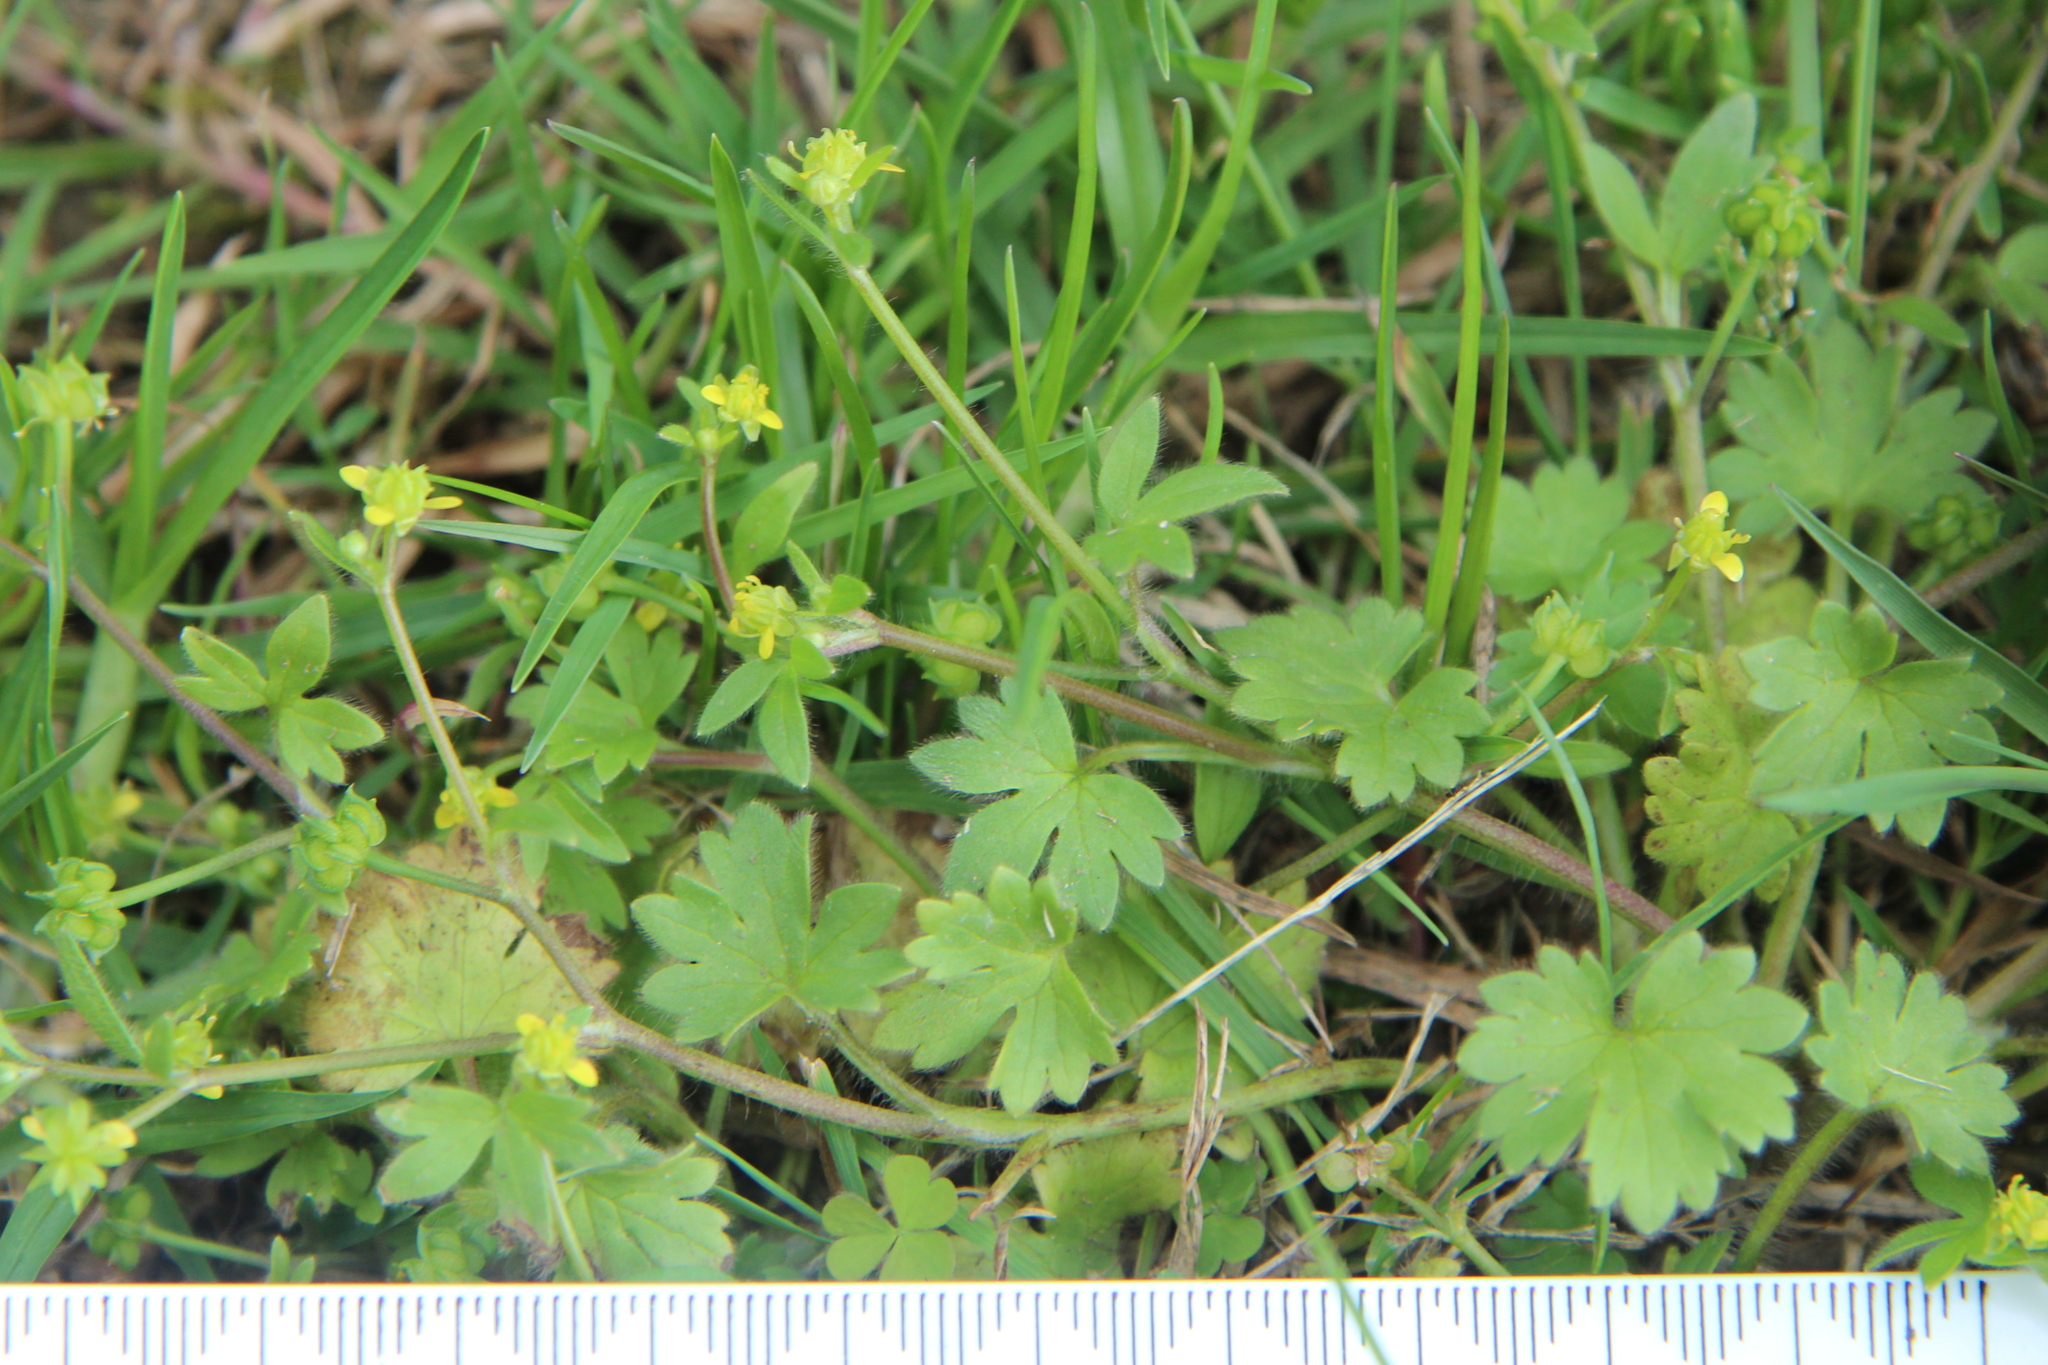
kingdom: Plantae
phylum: Tracheophyta
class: Magnoliopsida
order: Ranunculales
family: Ranunculaceae
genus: Ranunculus
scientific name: Ranunculus parviflorus
